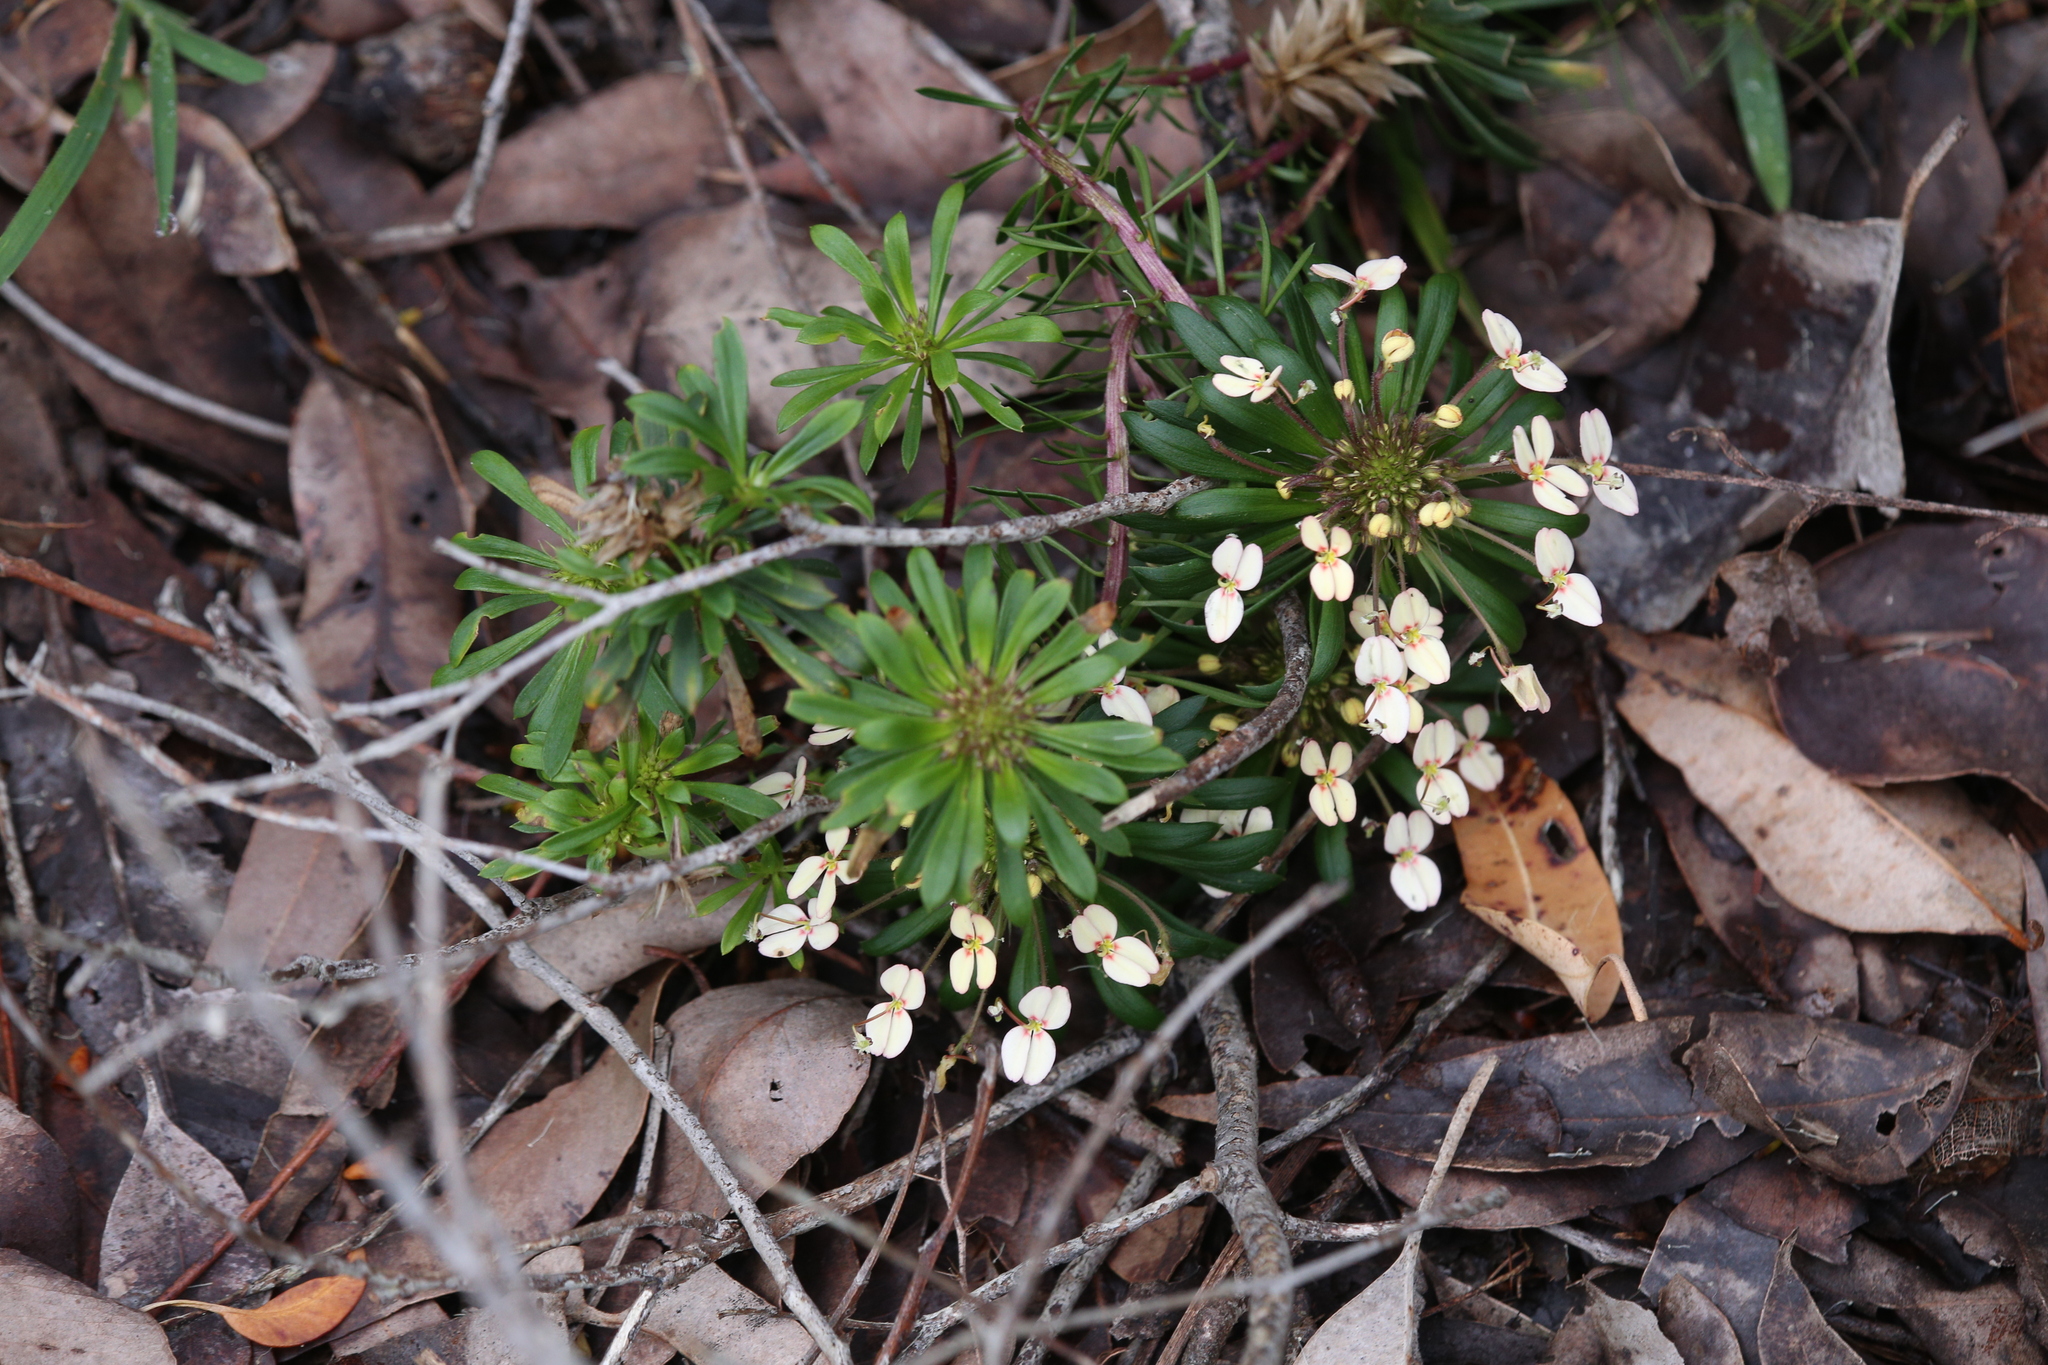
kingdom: Plantae
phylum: Tracheophyta
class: Magnoliopsida
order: Asterales
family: Stylidiaceae
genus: Stylidium
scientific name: Stylidium rhynchocarpum
